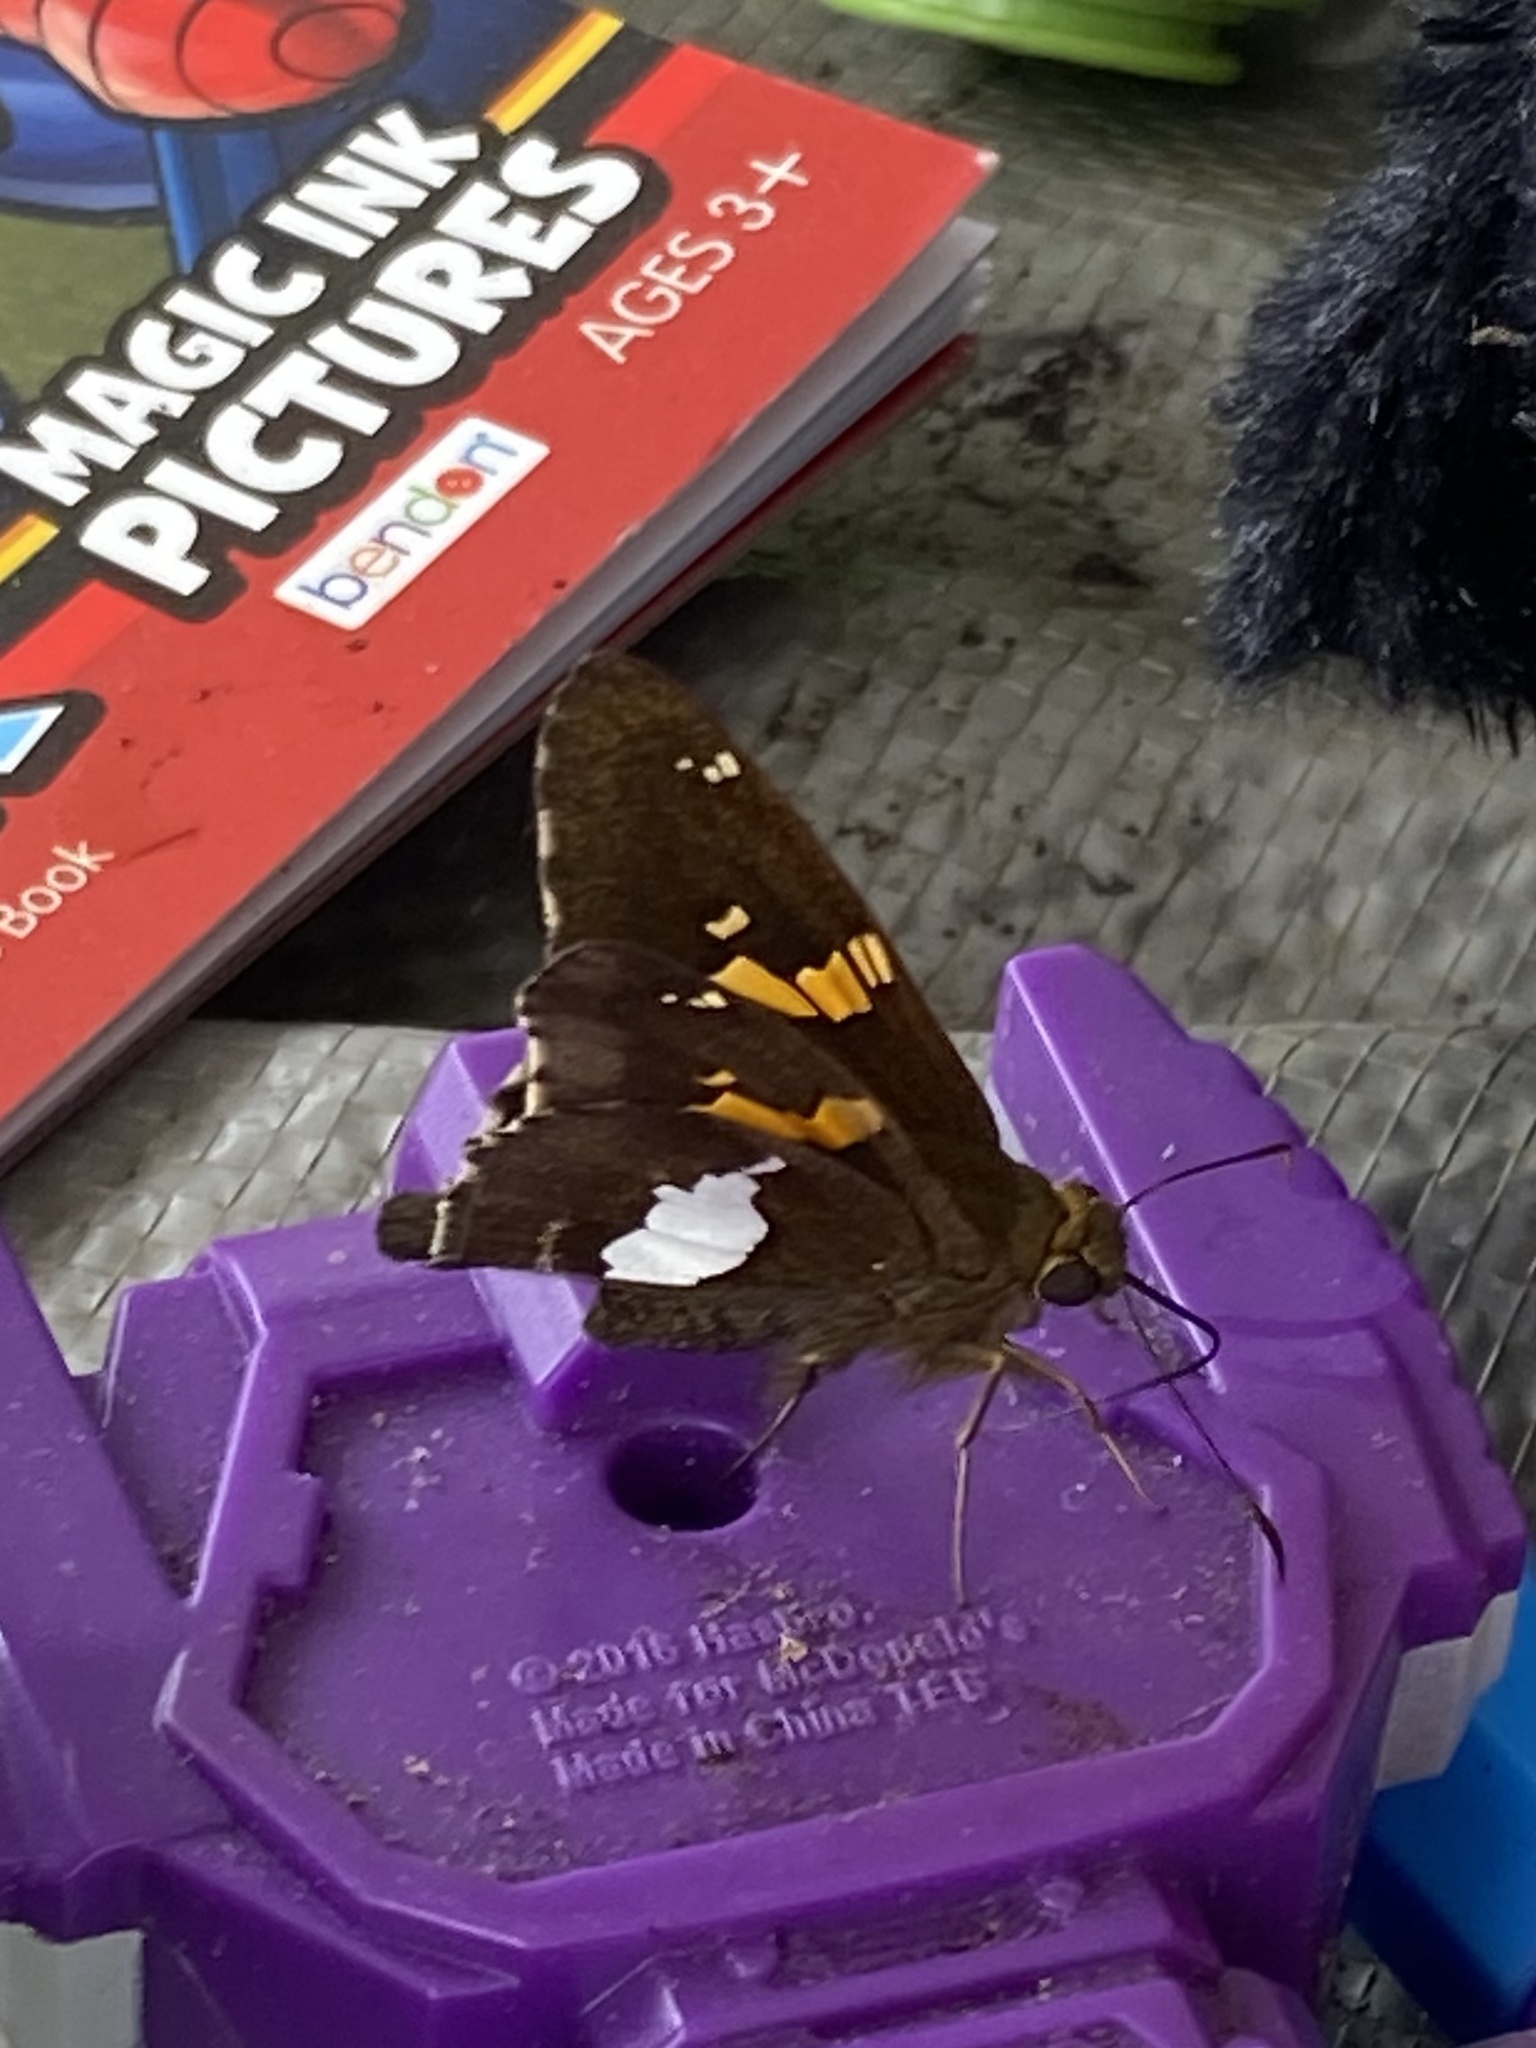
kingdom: Animalia
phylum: Arthropoda
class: Insecta
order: Lepidoptera
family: Hesperiidae
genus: Epargyreus
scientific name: Epargyreus clarus
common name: Silver-spotted skipper
